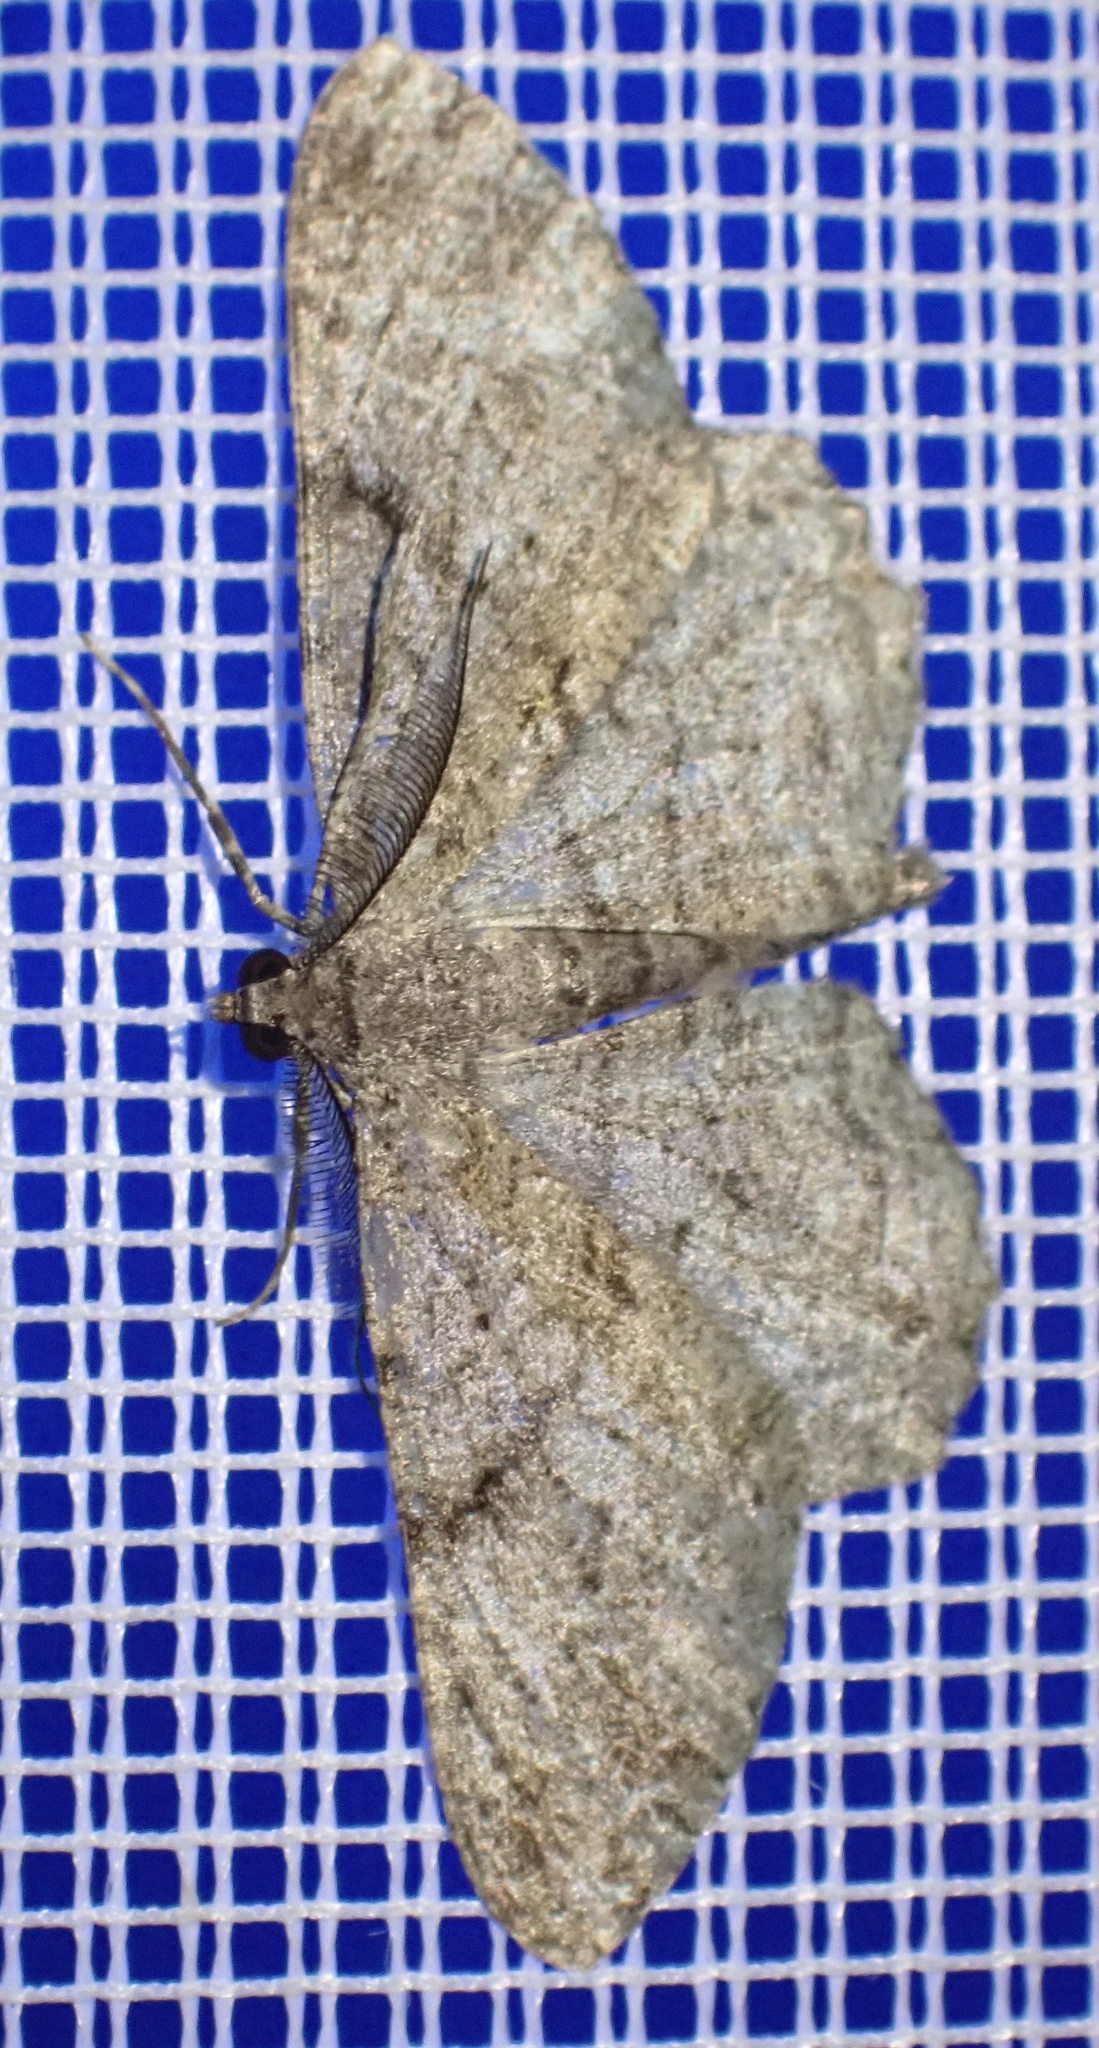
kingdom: Animalia
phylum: Arthropoda
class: Insecta
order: Lepidoptera
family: Geometridae
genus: Peribatodes
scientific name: Peribatodes rhomboidaria
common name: Willow beauty
